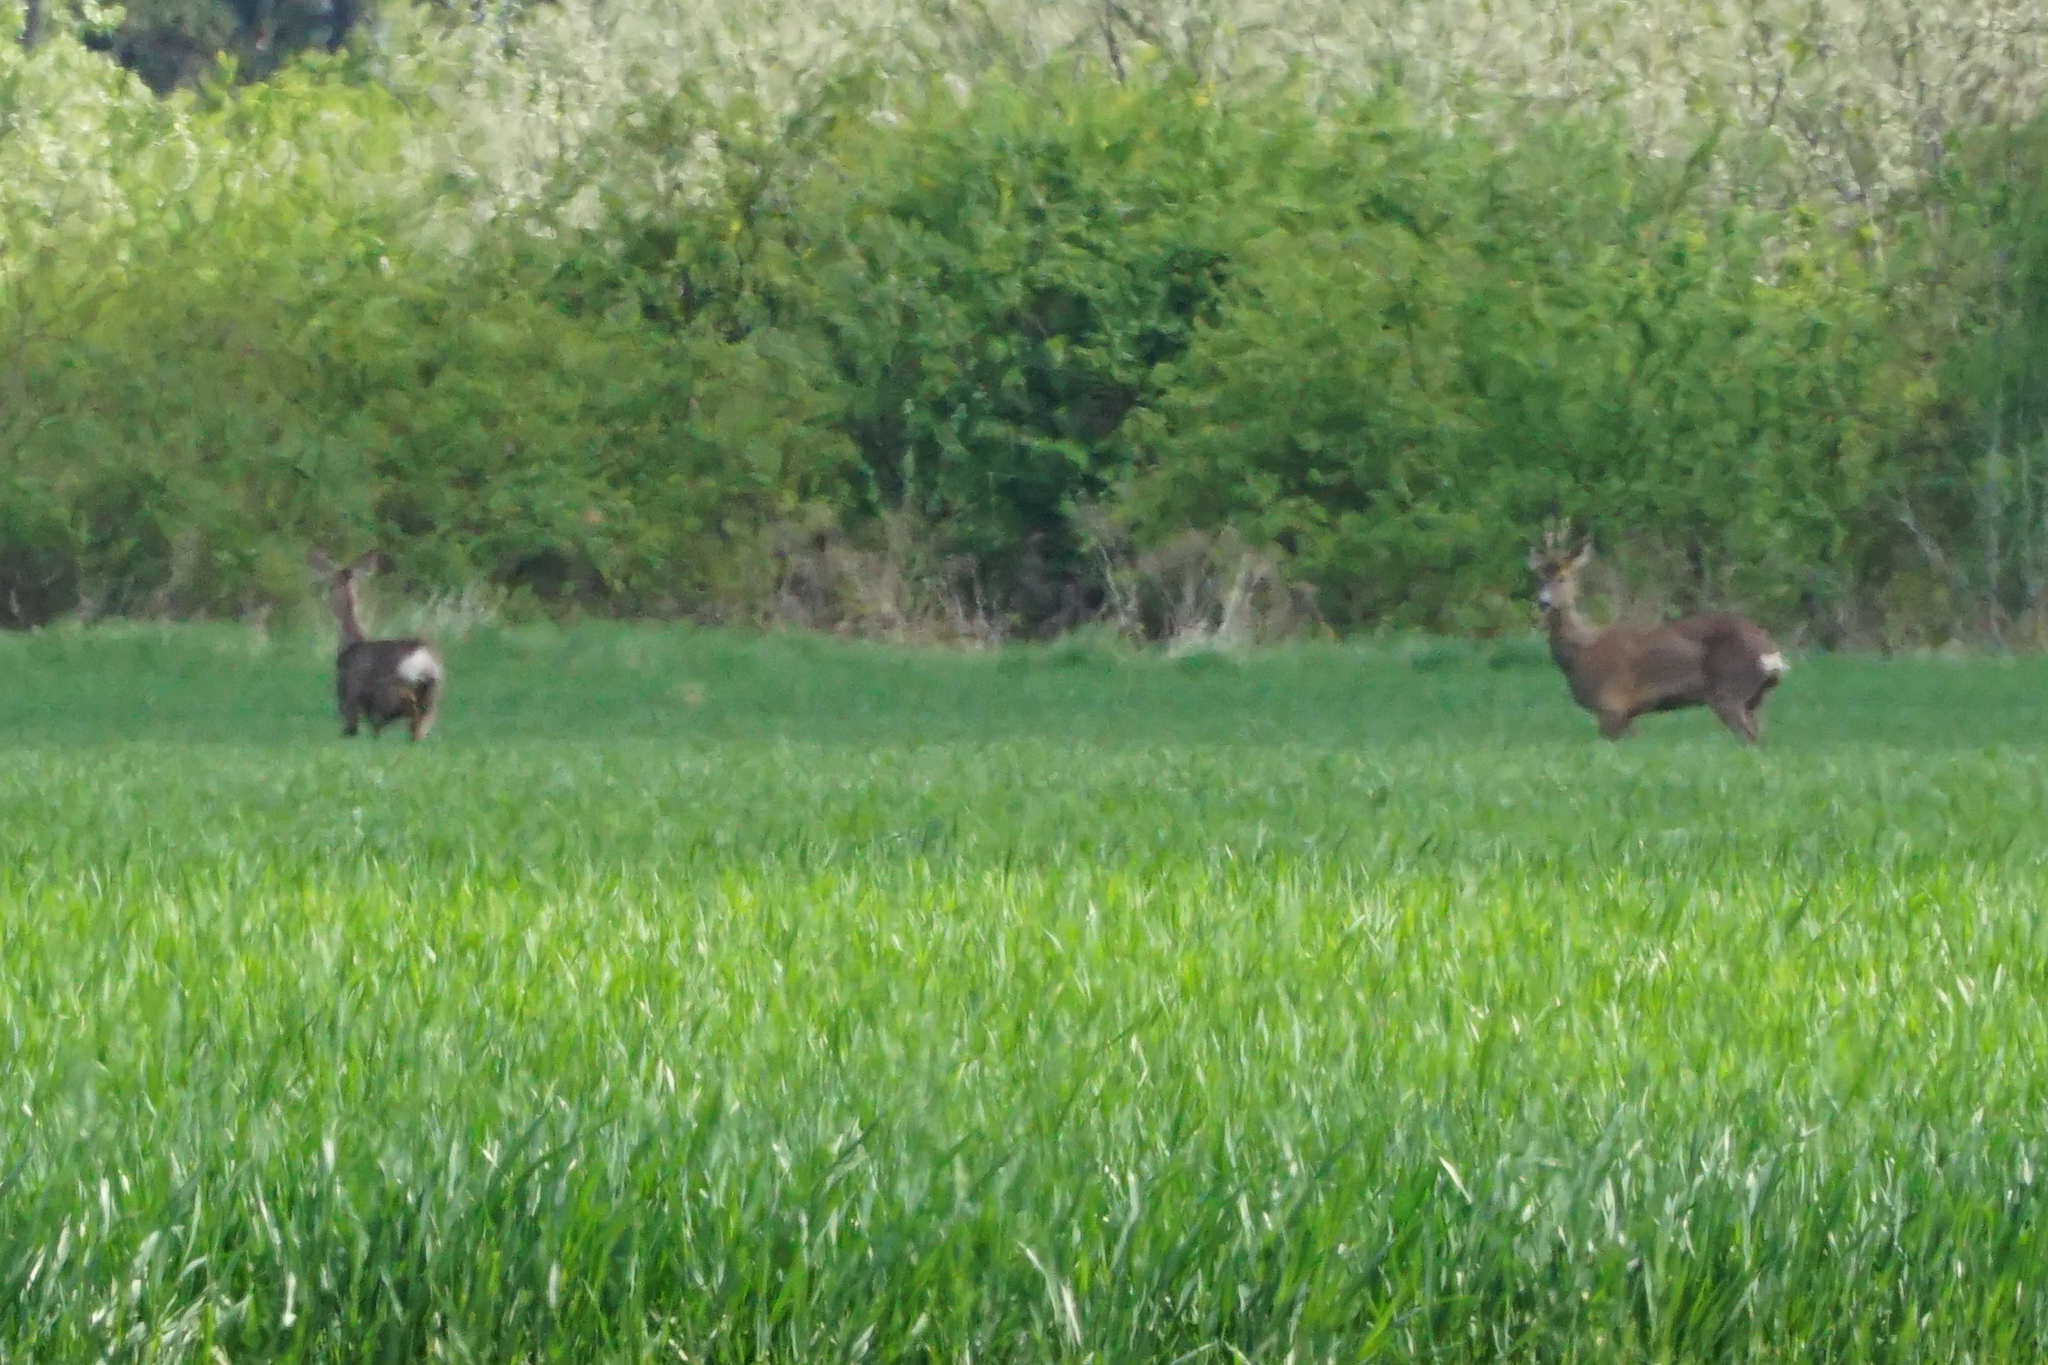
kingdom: Animalia
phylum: Chordata
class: Mammalia
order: Artiodactyla
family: Cervidae
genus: Capreolus
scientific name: Capreolus capreolus
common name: Western roe deer
